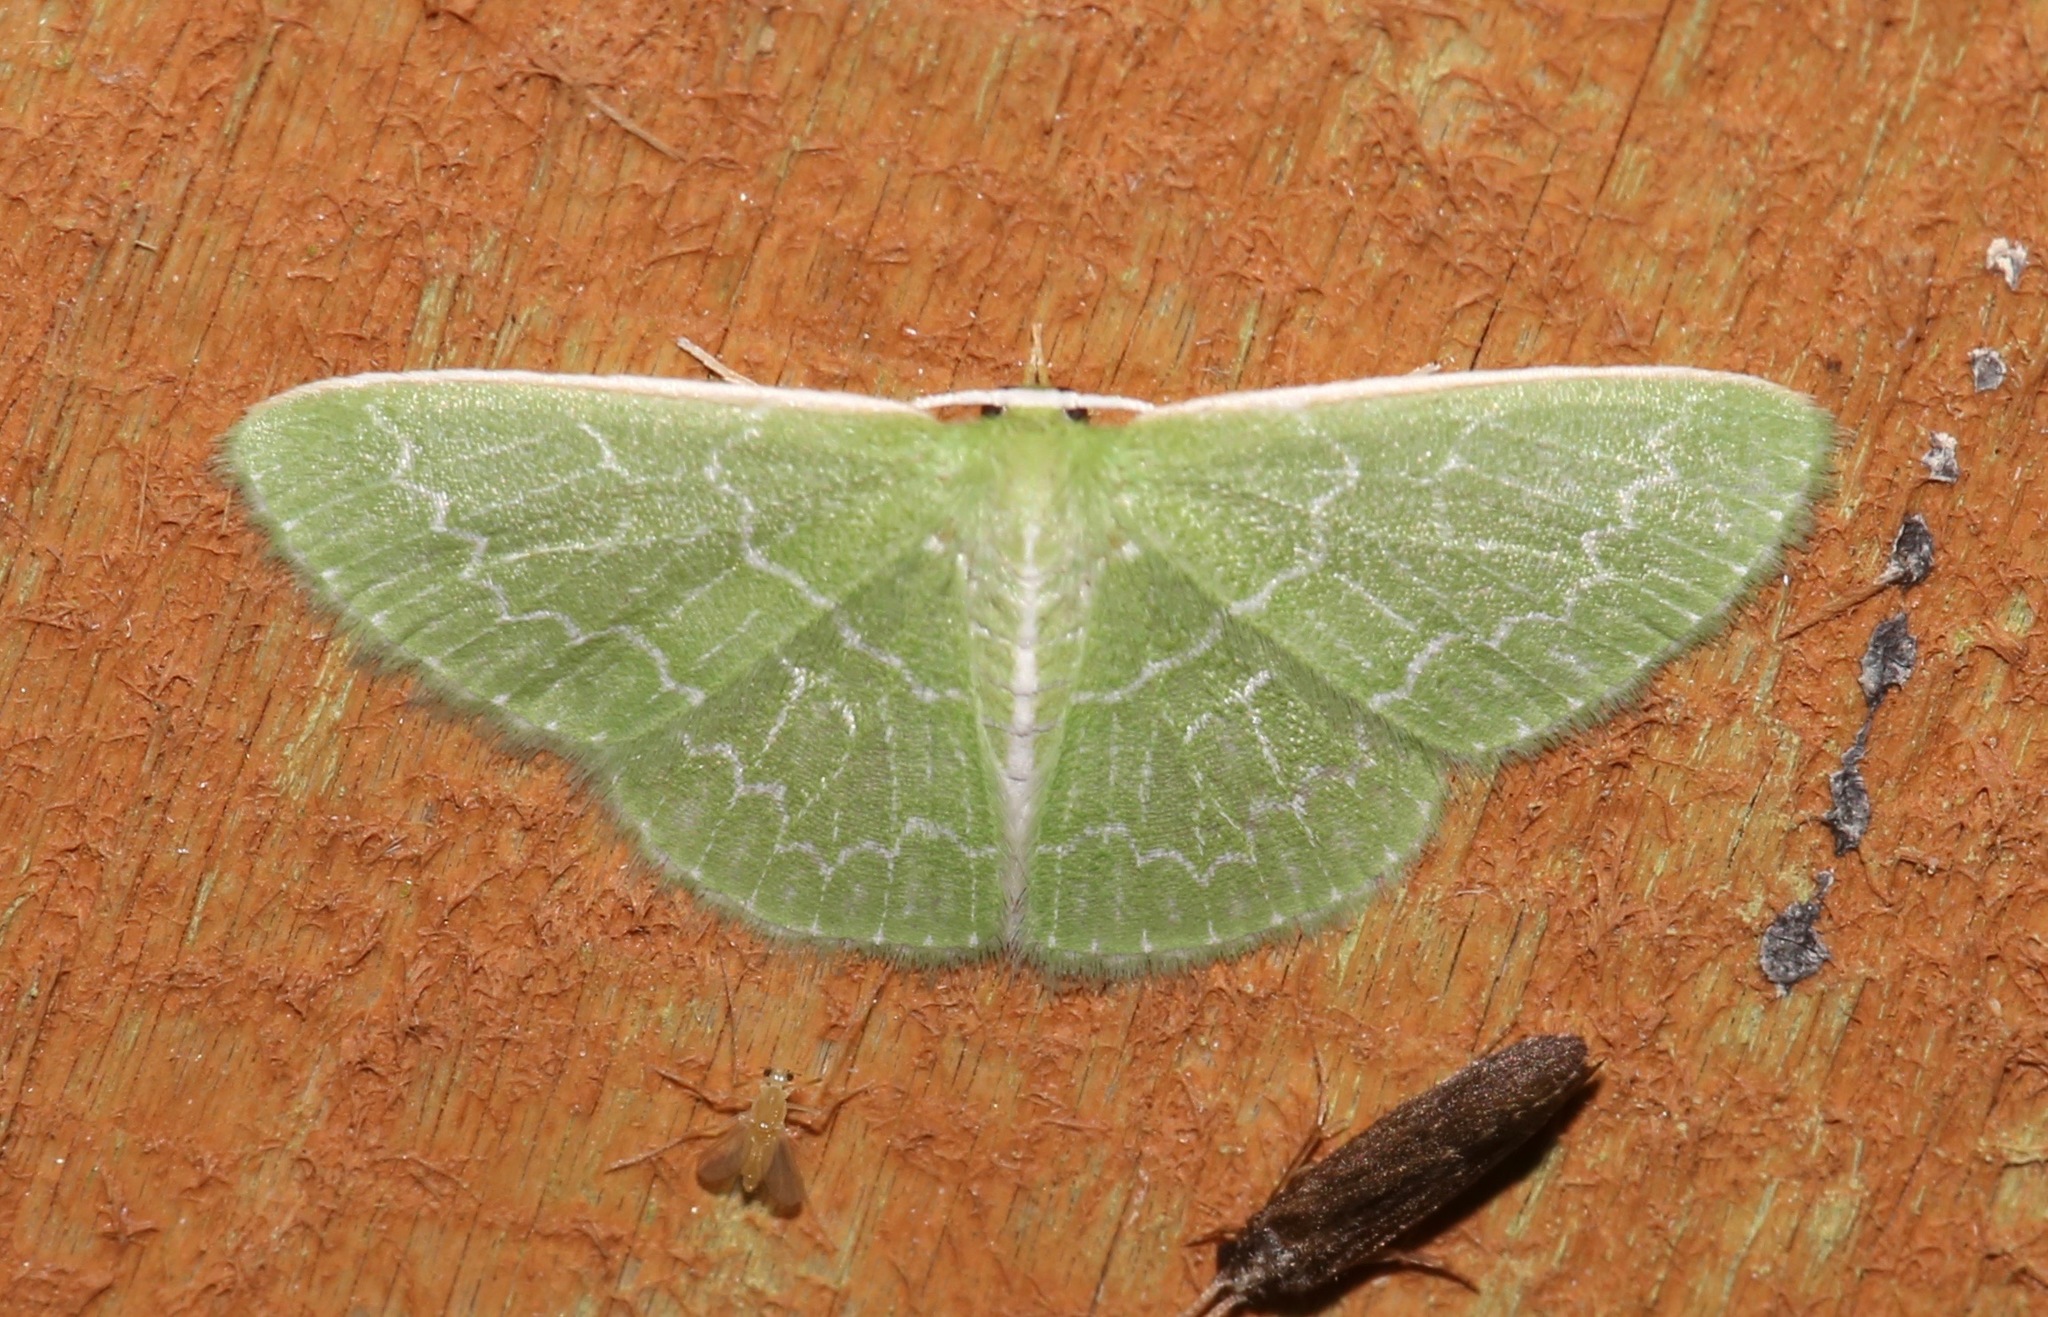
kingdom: Animalia
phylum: Arthropoda
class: Insecta
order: Lepidoptera
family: Geometridae
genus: Synchlora
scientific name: Synchlora frondaria
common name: Southern emerald
